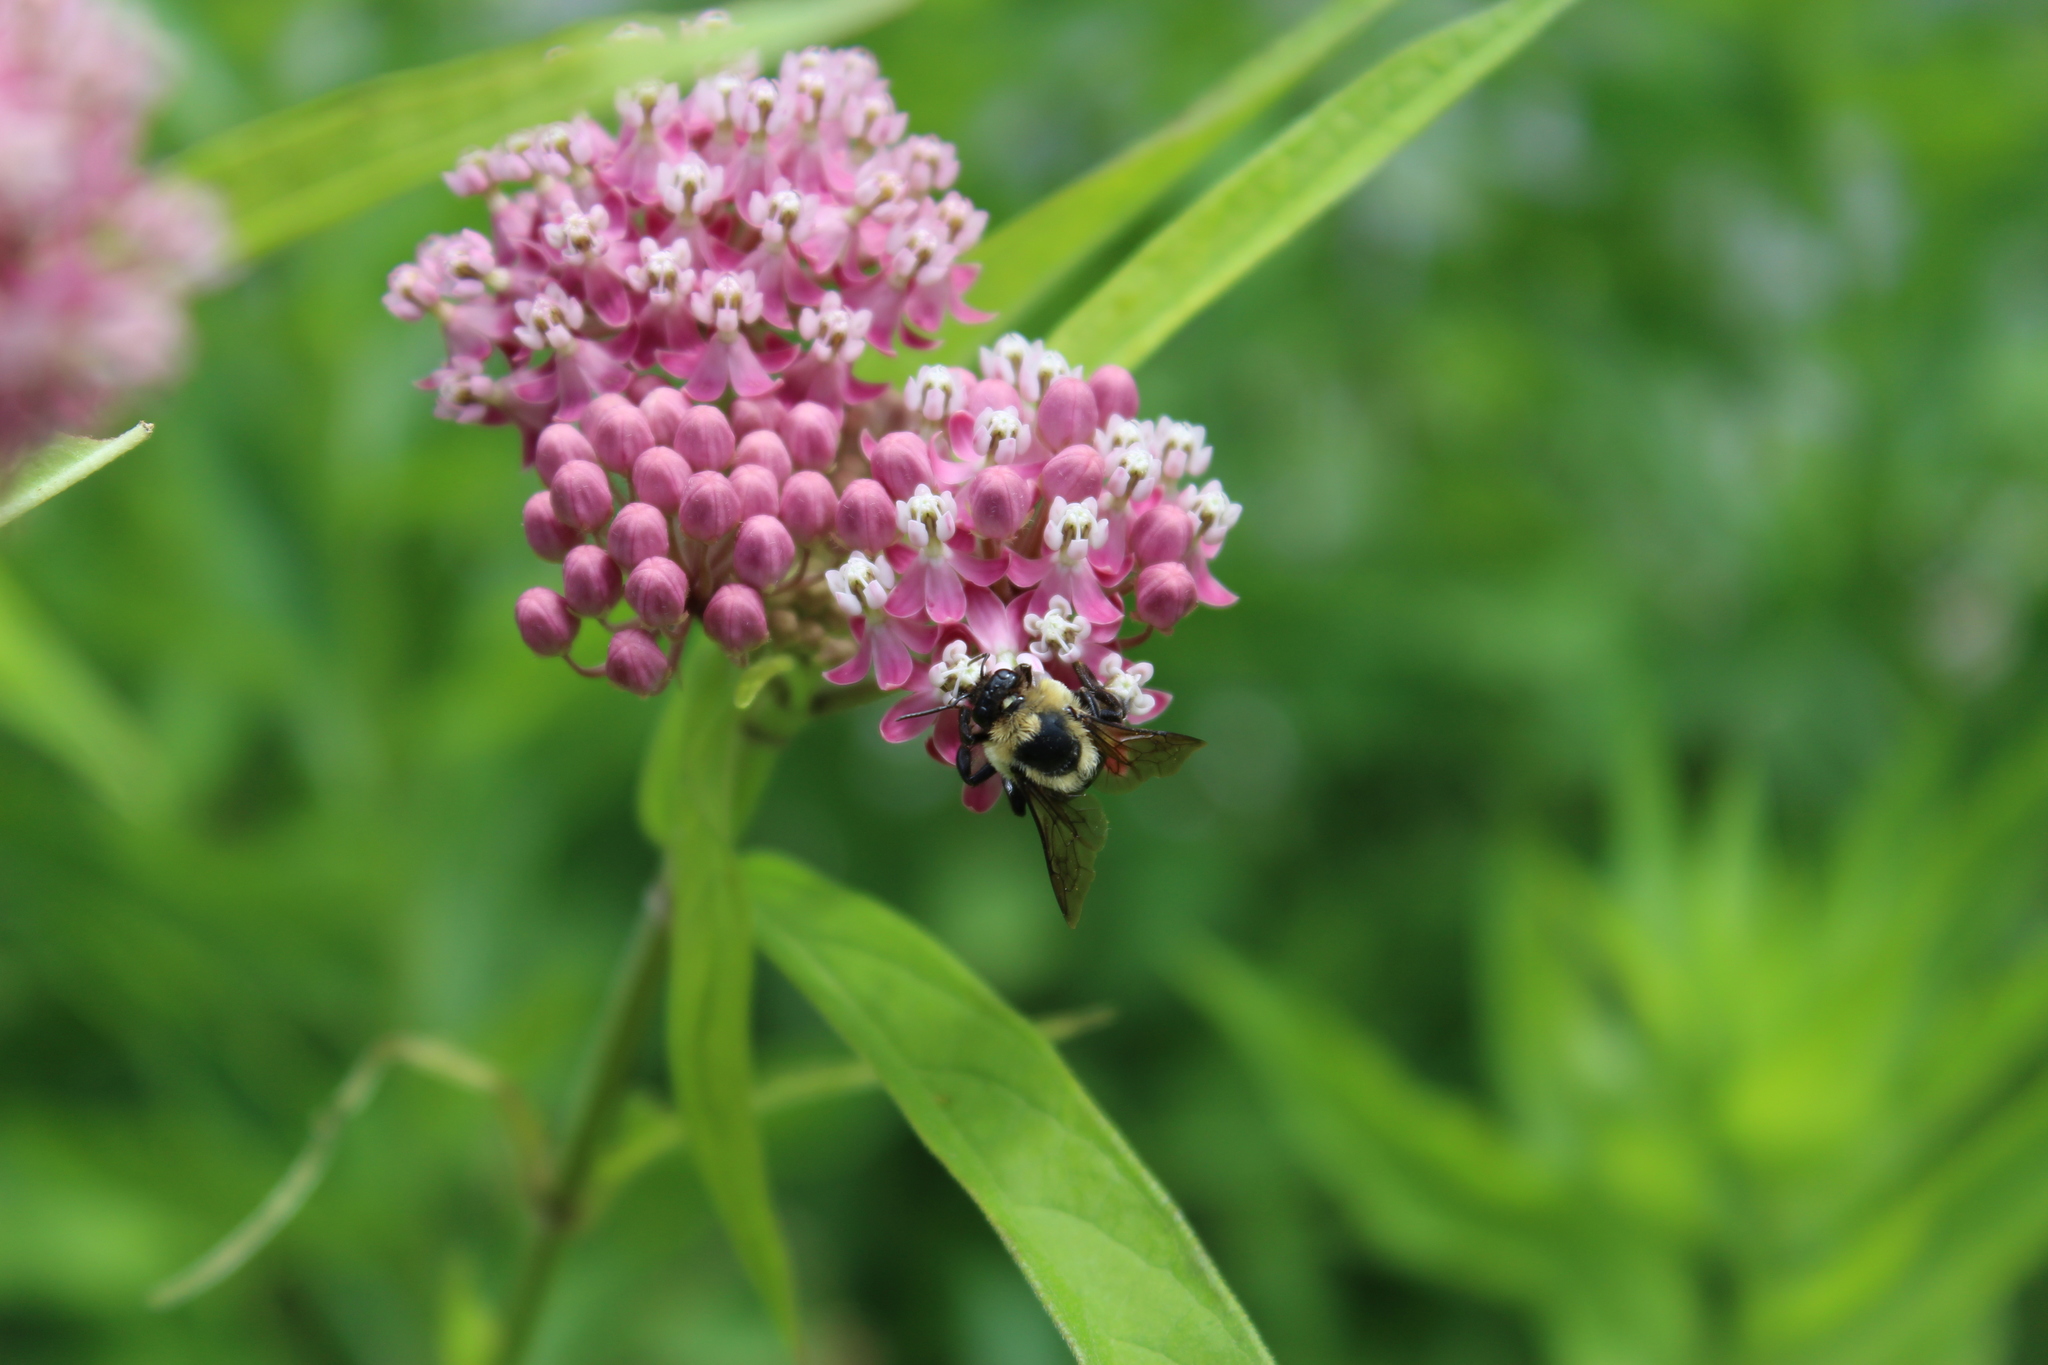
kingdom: Animalia
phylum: Arthropoda
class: Insecta
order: Hymenoptera
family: Apidae
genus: Bombus
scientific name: Bombus griseocollis
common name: Brown-belted bumble bee
